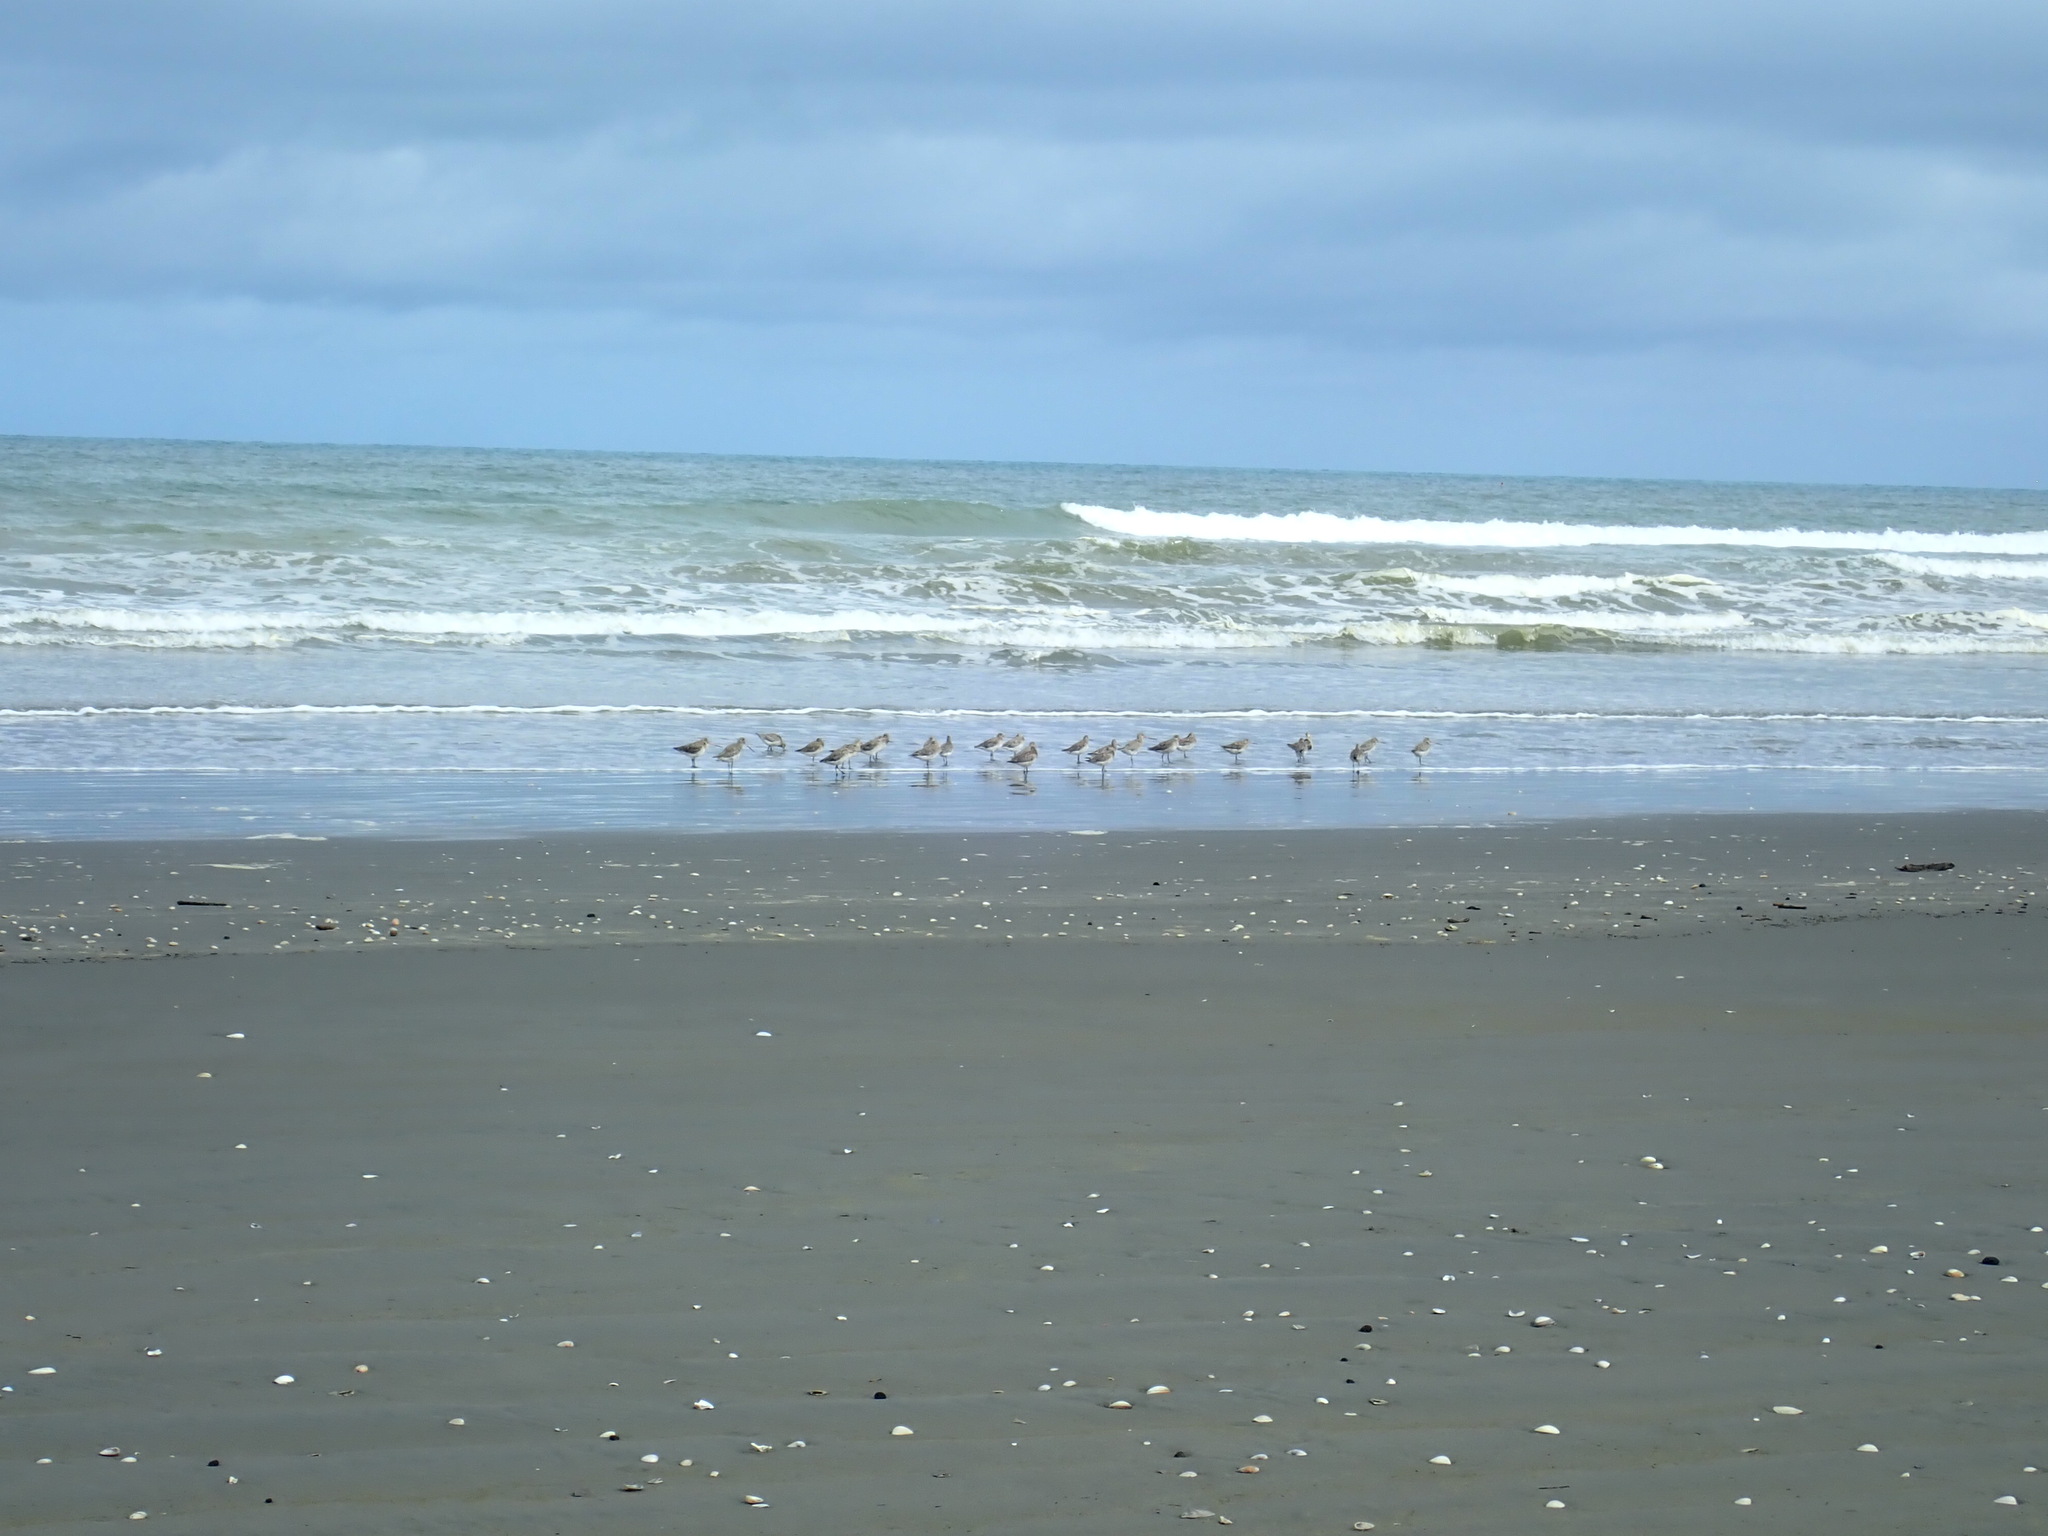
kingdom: Animalia
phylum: Chordata
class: Aves
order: Charadriiformes
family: Scolopacidae
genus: Limosa
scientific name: Limosa lapponica
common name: Bar-tailed godwit
